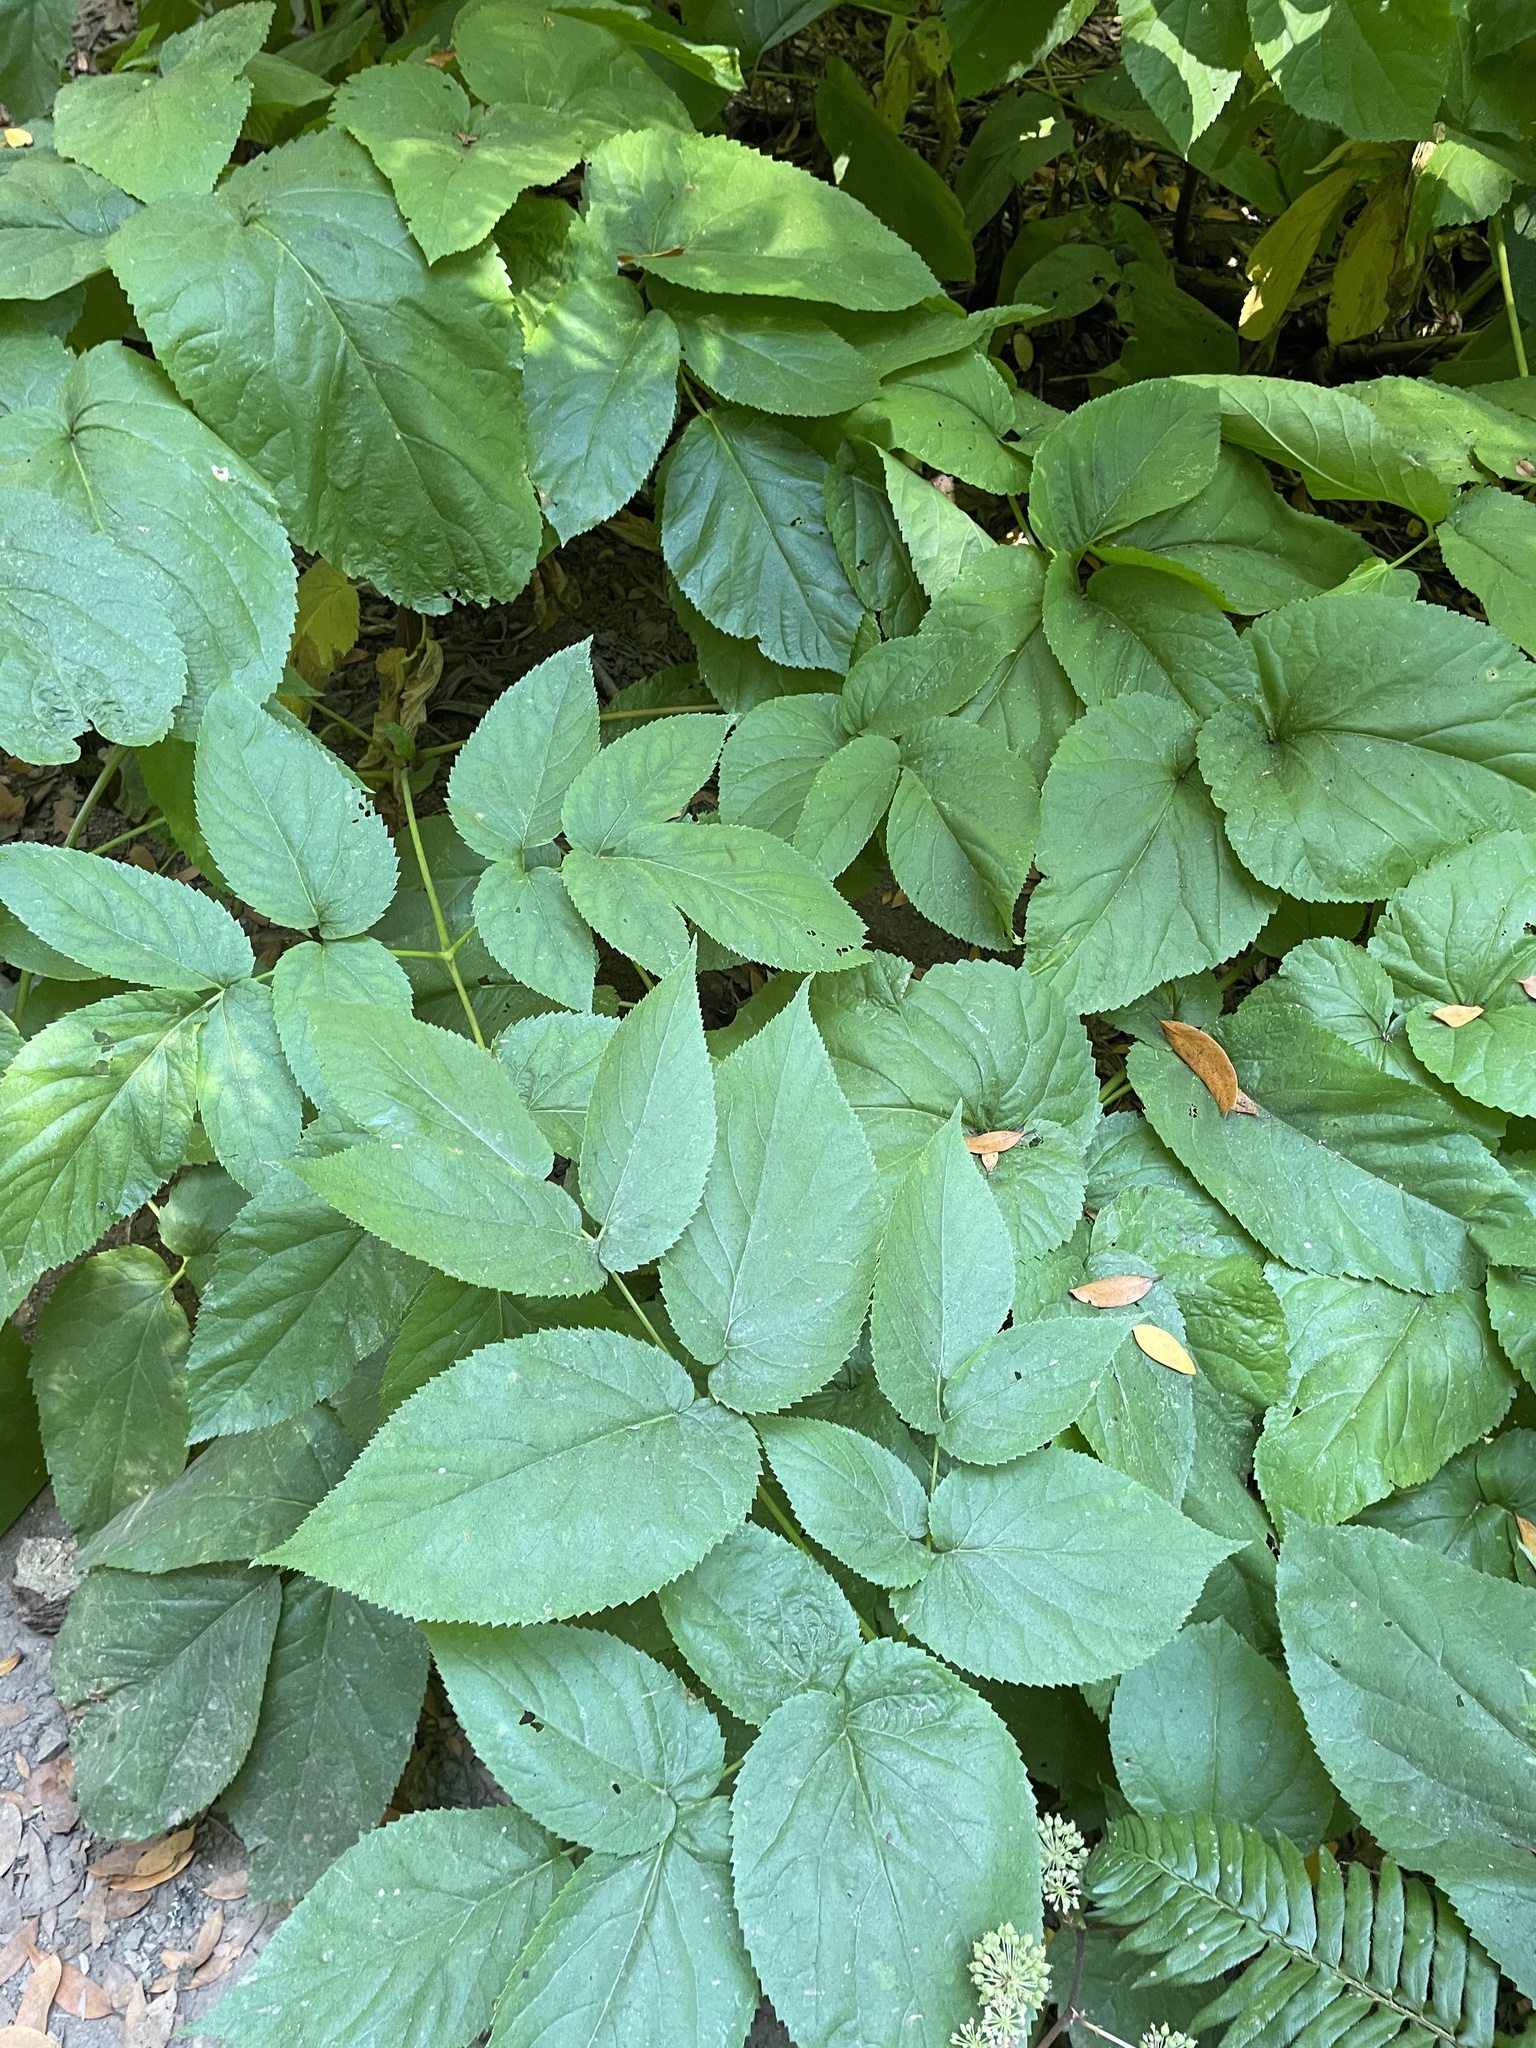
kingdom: Plantae
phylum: Tracheophyta
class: Magnoliopsida
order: Apiales
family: Araliaceae
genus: Aralia
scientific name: Aralia californica
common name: California-ginseng
